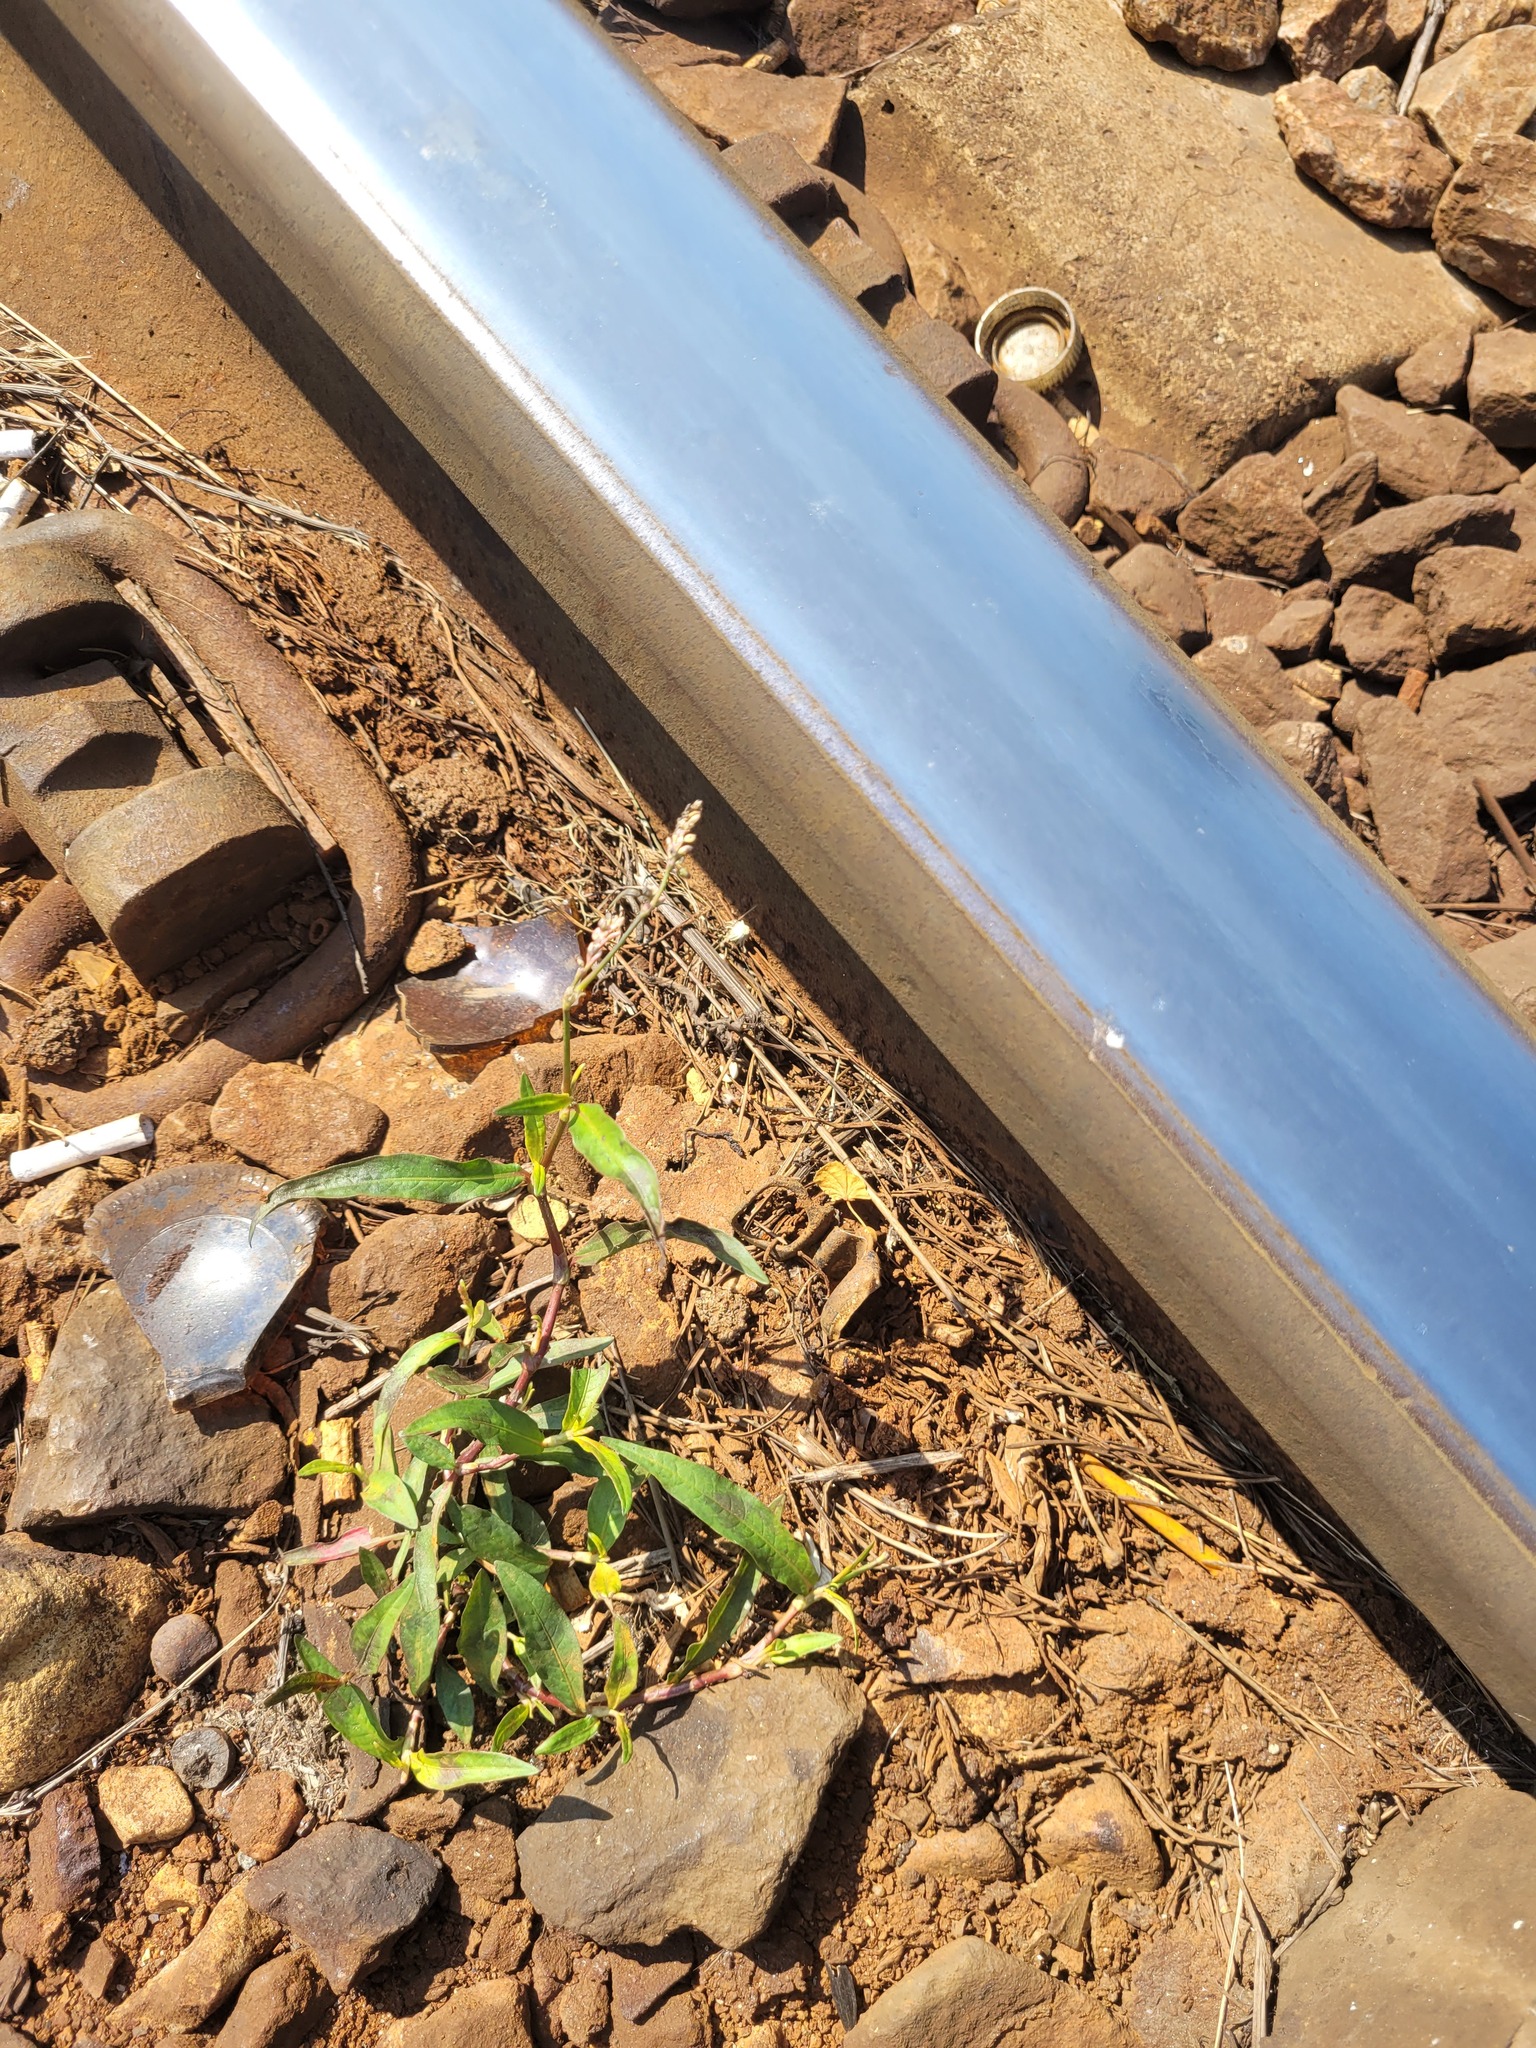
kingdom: Plantae
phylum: Tracheophyta
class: Magnoliopsida
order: Caryophyllales
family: Polygonaceae
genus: Persicaria
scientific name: Persicaria maculosa
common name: Redshank
